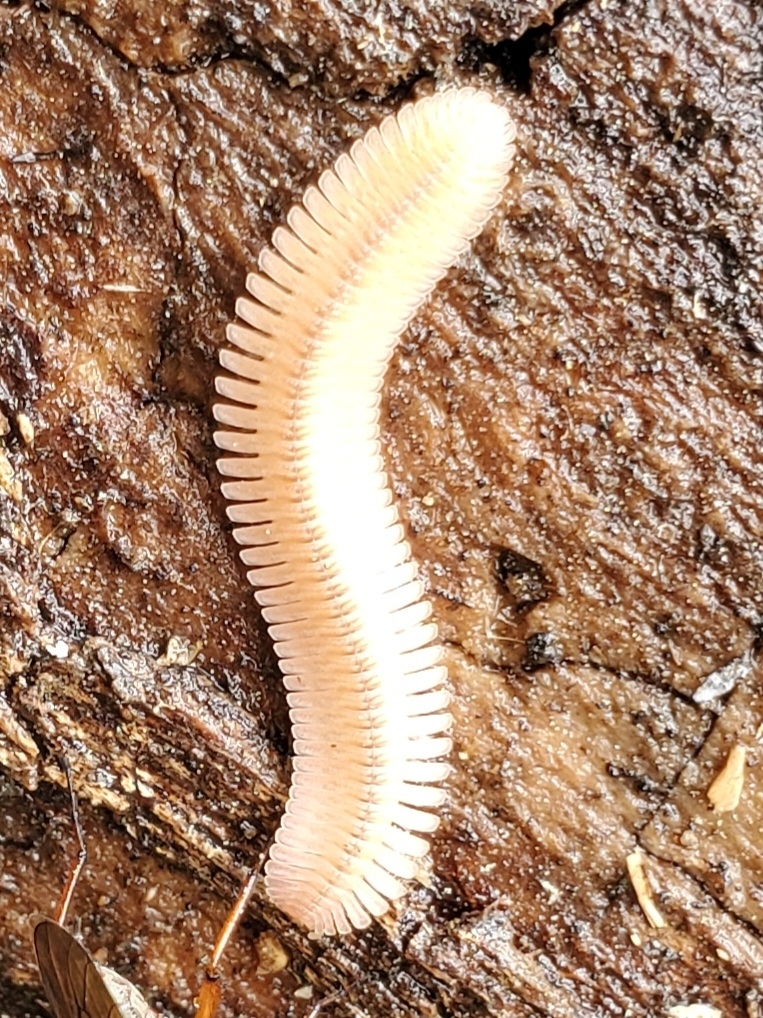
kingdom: Animalia
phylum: Arthropoda
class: Diplopoda
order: Platydesmida
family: Andrognathidae
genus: Brachycybe
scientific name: Brachycybe lecontii
